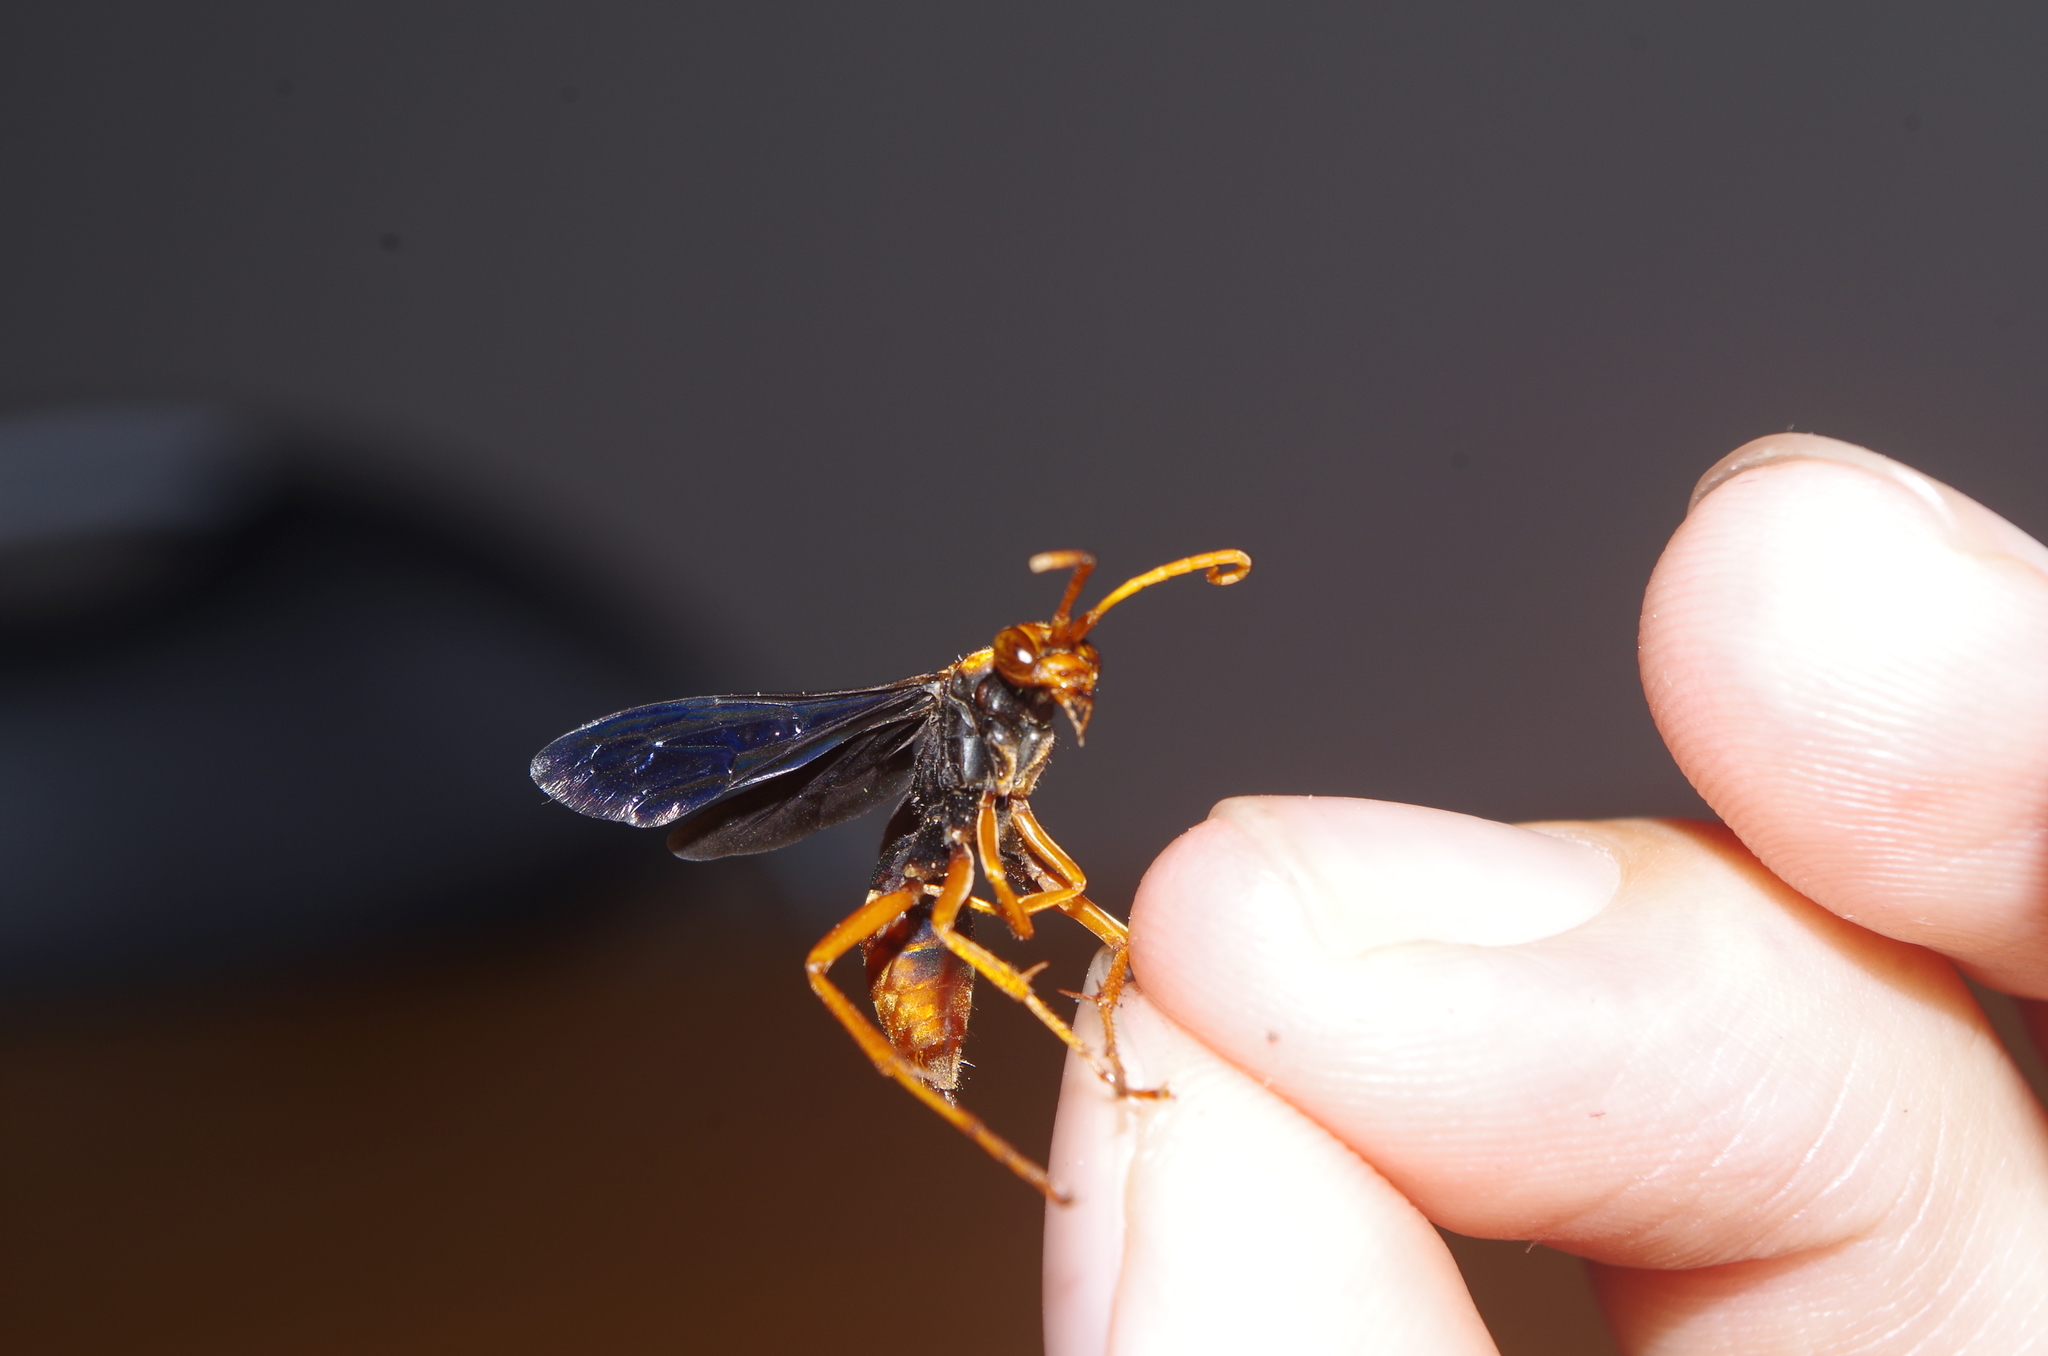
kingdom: Animalia
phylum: Arthropoda
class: Insecta
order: Hymenoptera
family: Pompilidae
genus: Hemipepsis
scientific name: Hemipepsis sogdiana
